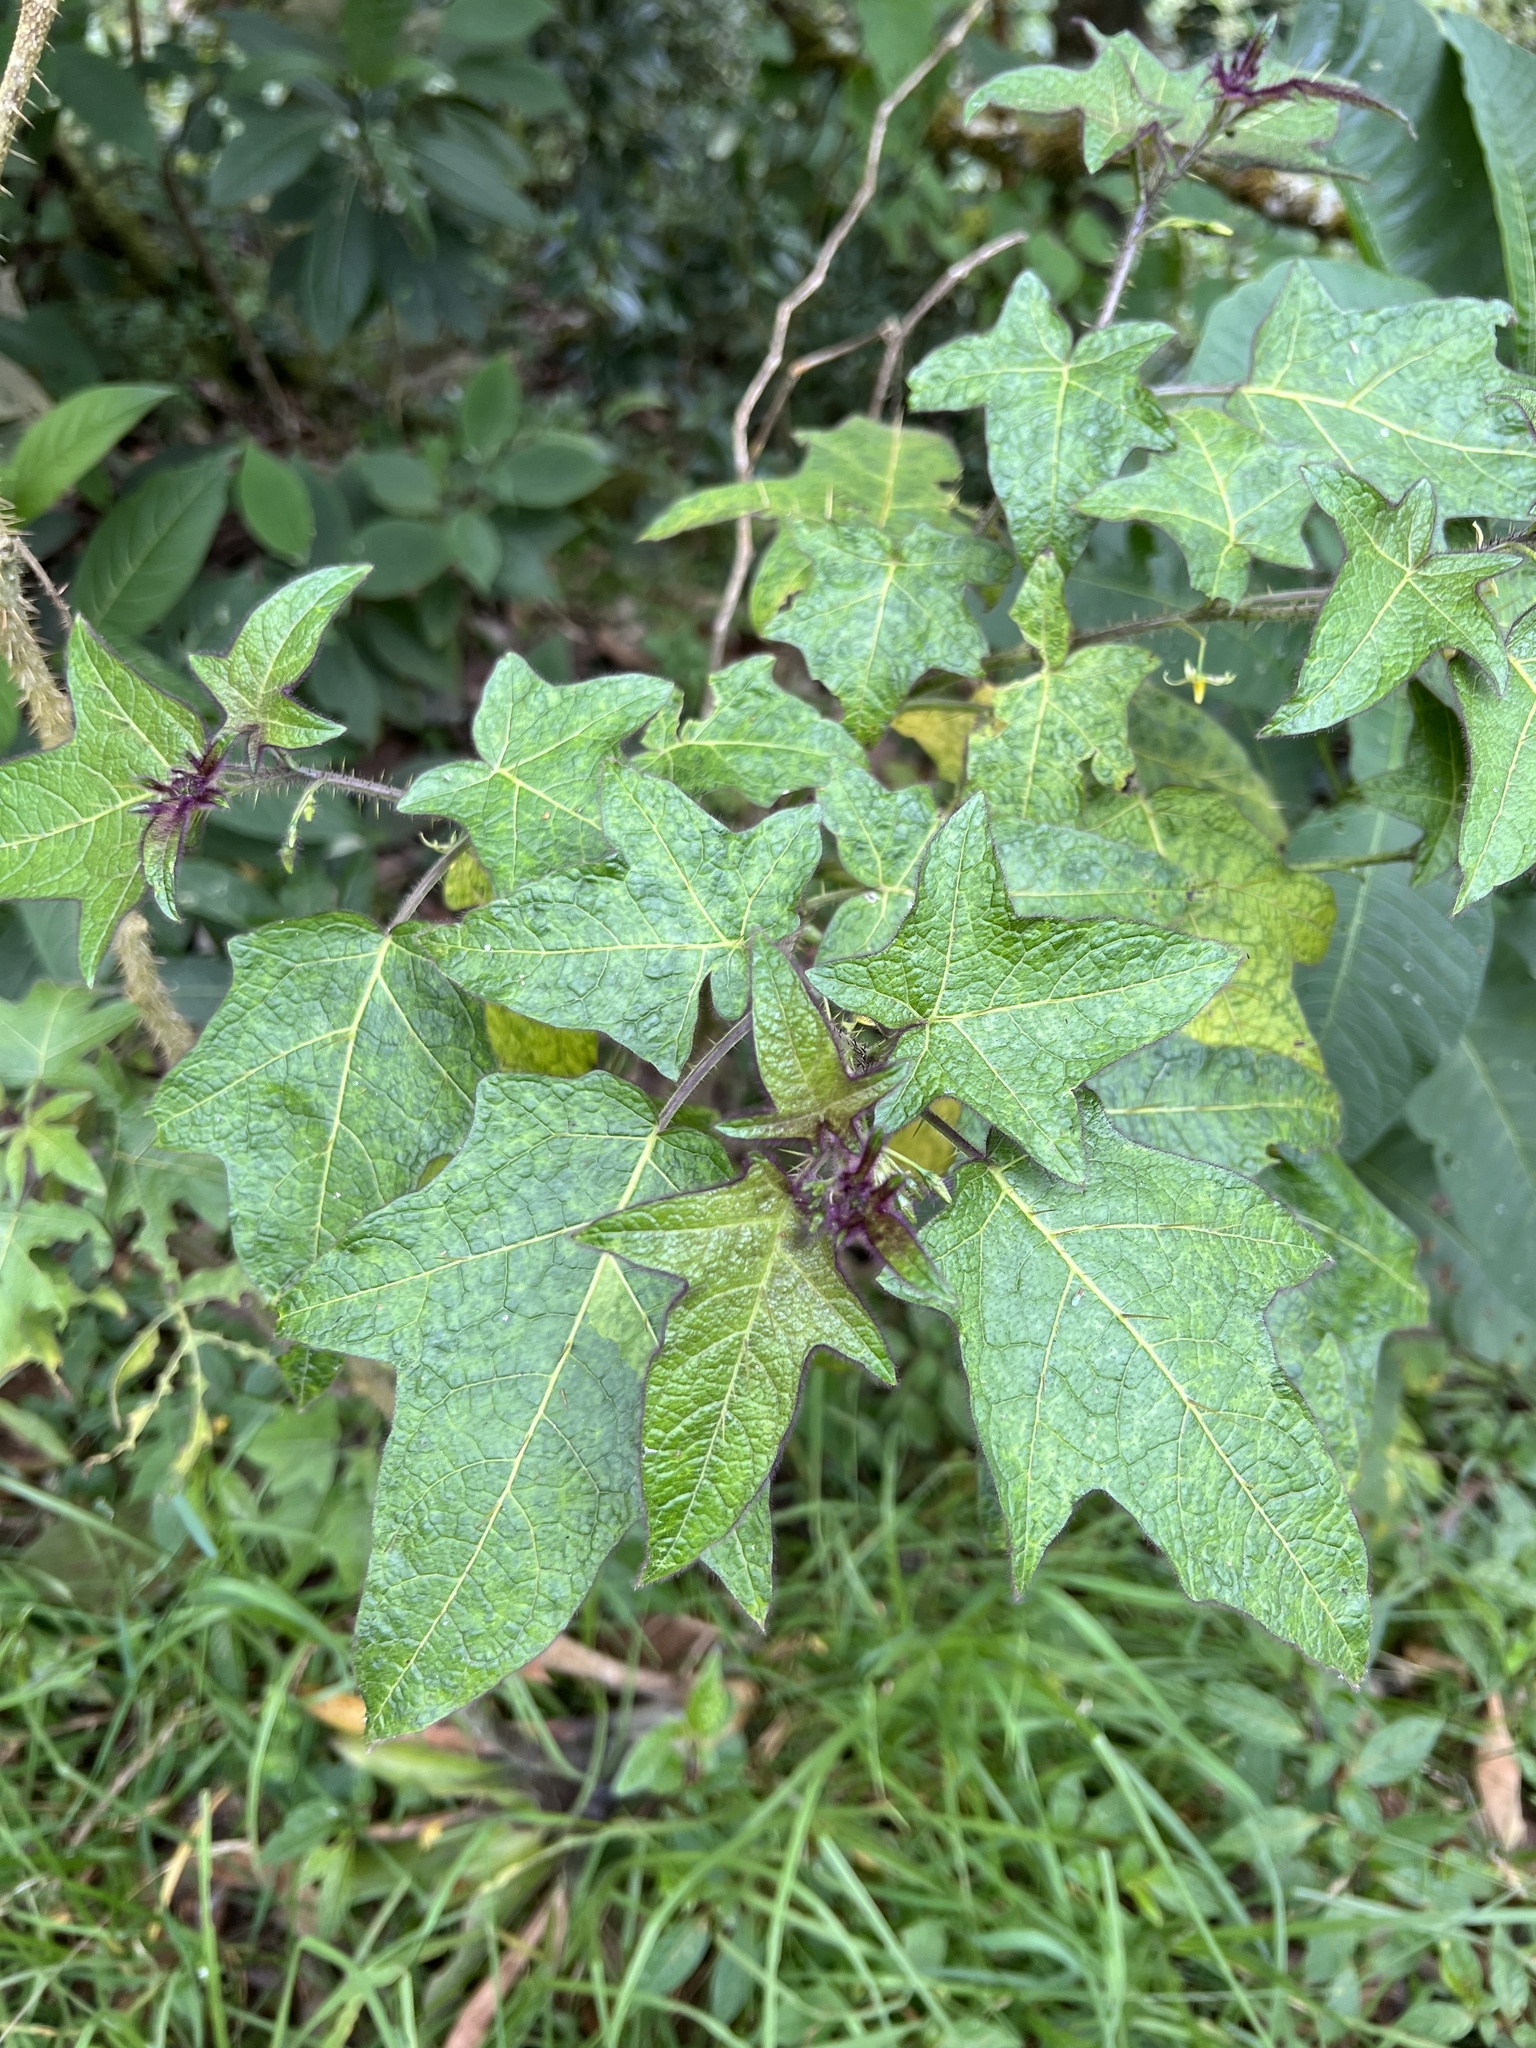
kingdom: Plantae
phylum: Tracheophyta
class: Magnoliopsida
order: Solanales
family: Solanaceae
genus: Solanum
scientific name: Solanum acerifolium
